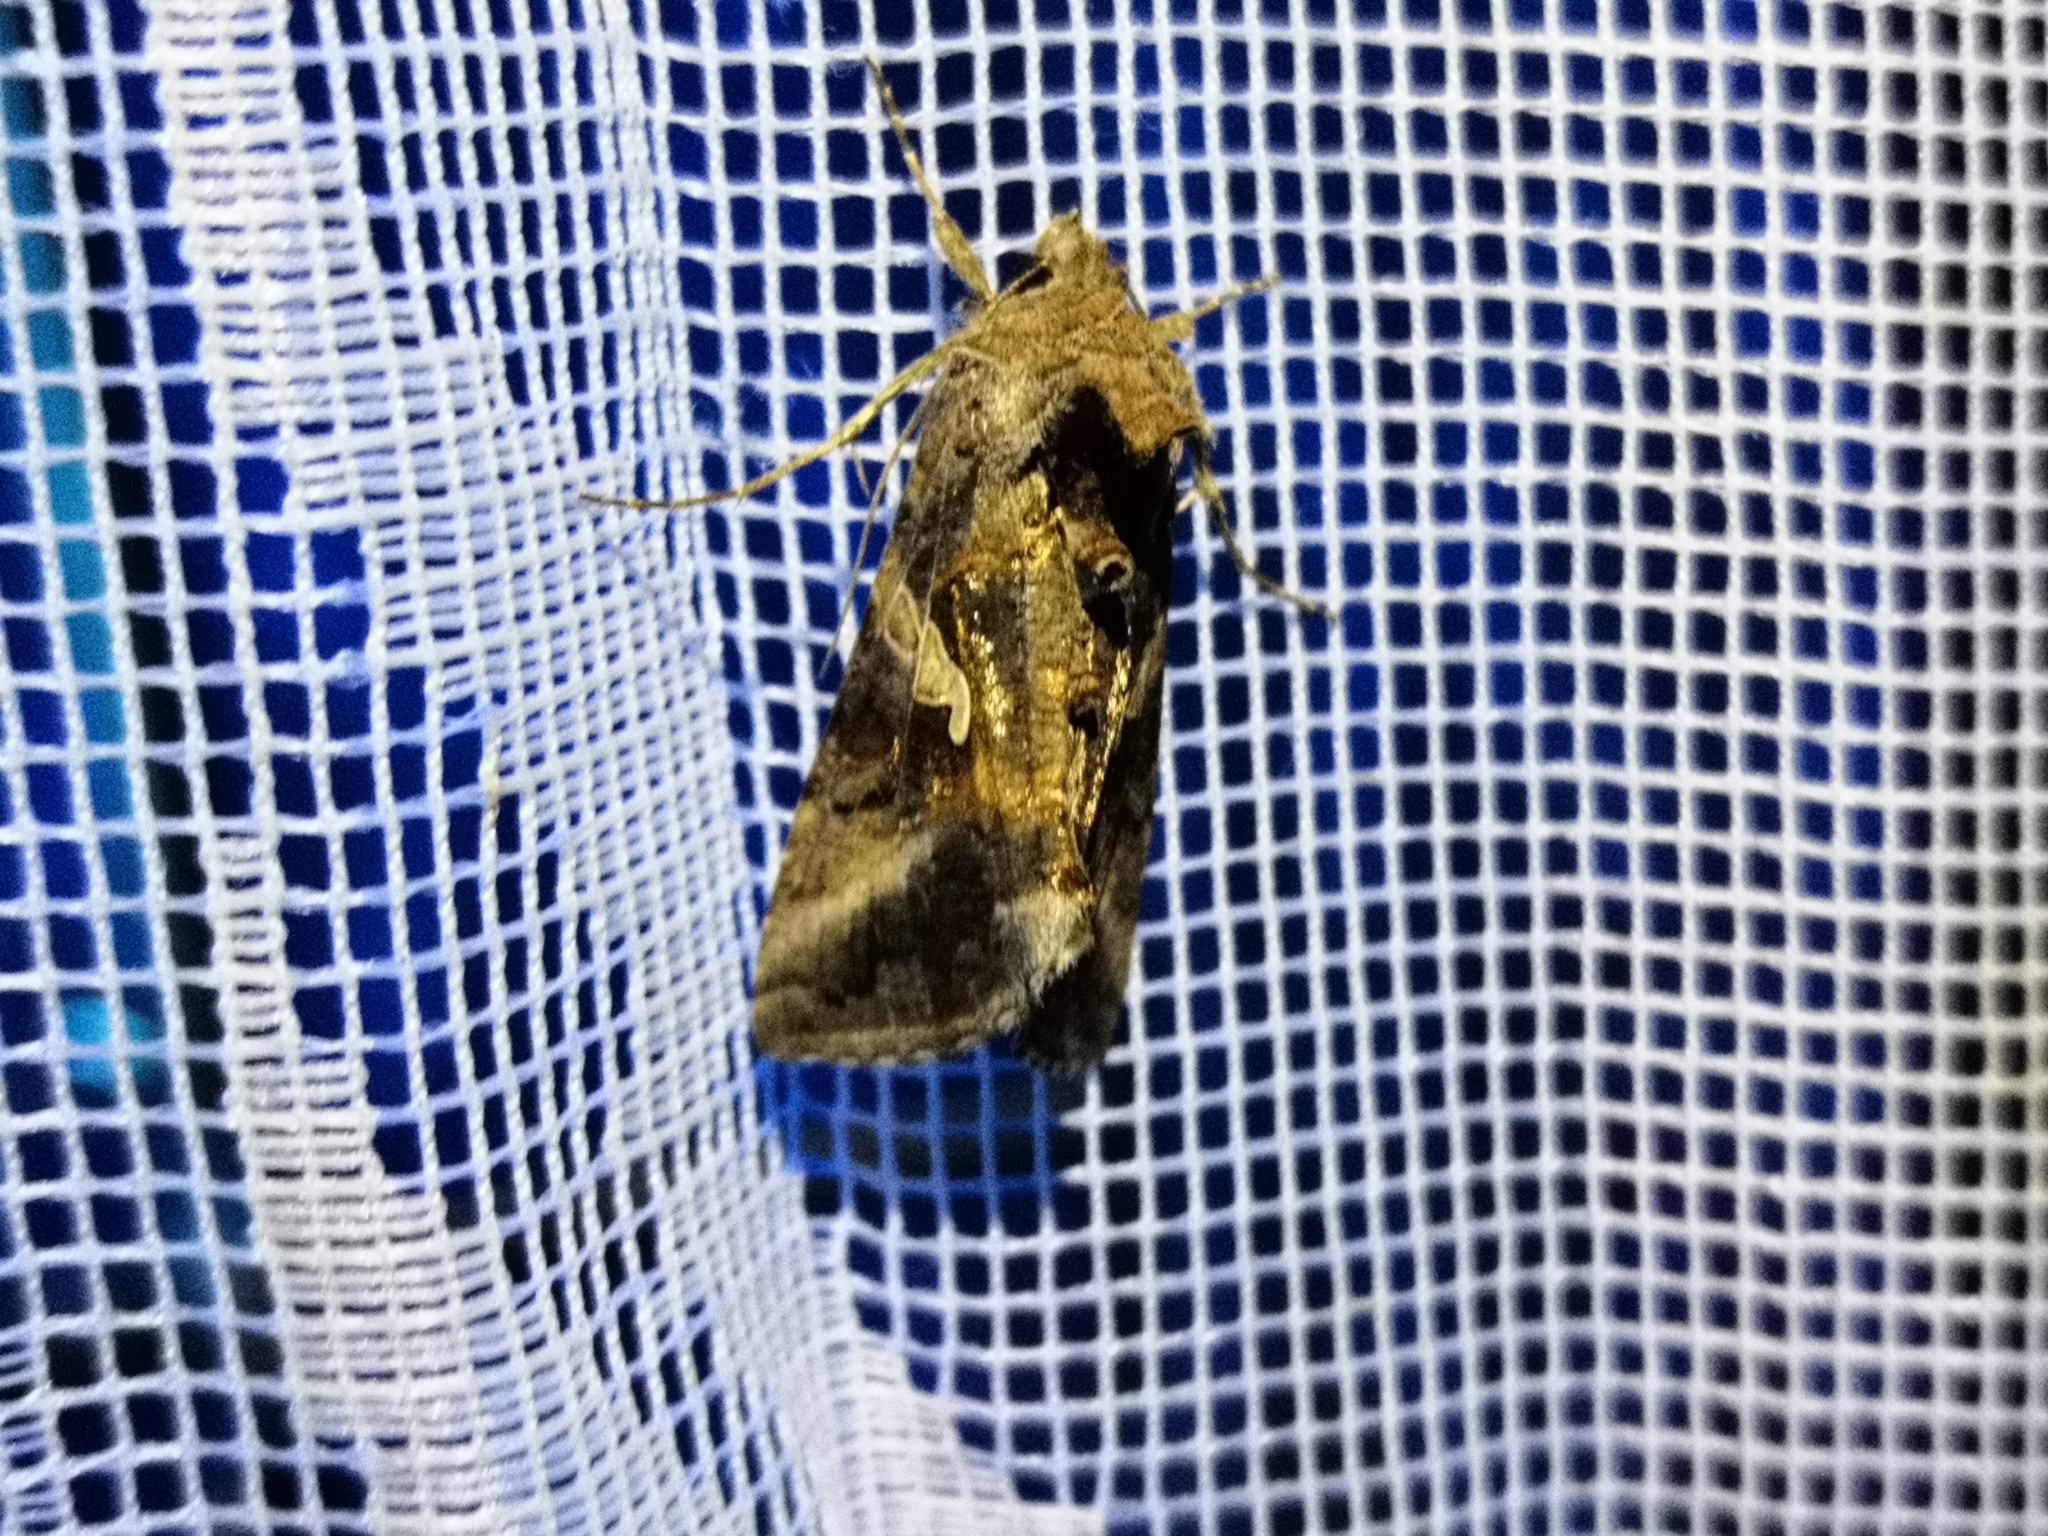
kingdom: Animalia
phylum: Arthropoda
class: Insecta
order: Lepidoptera
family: Noctuidae
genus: Autographa
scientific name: Autographa gamma
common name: Silver y
